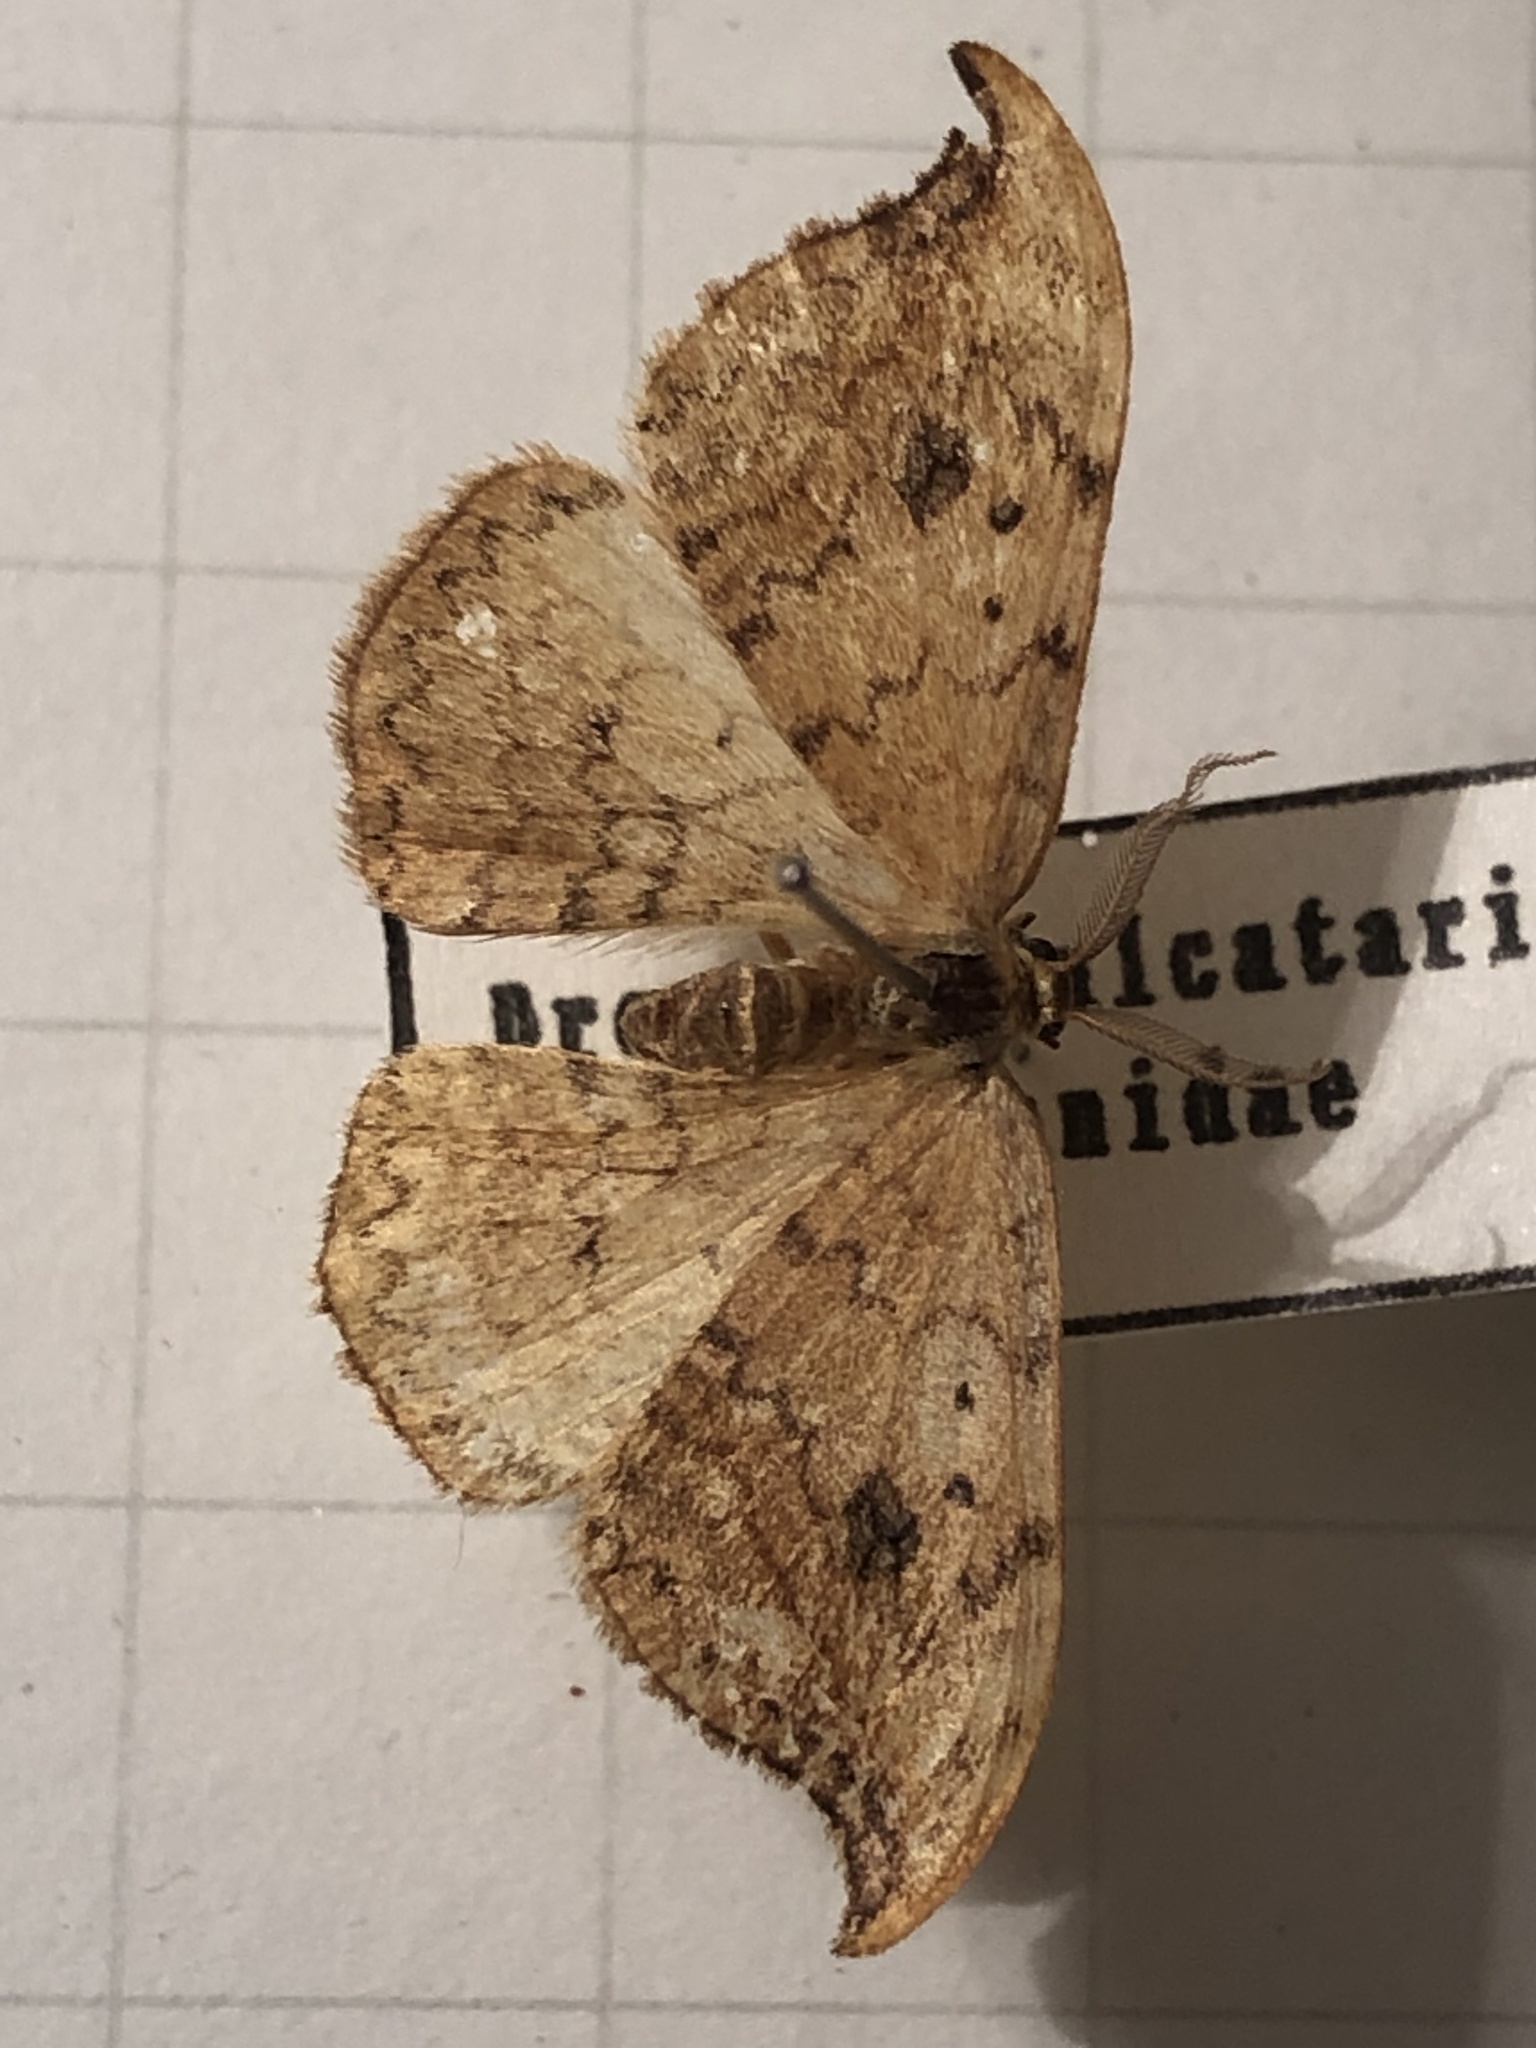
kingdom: Animalia
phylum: Arthropoda
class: Insecta
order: Lepidoptera
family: Drepanidae
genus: Drepana
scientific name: Drepana falcataria
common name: Pebble hook-tip
